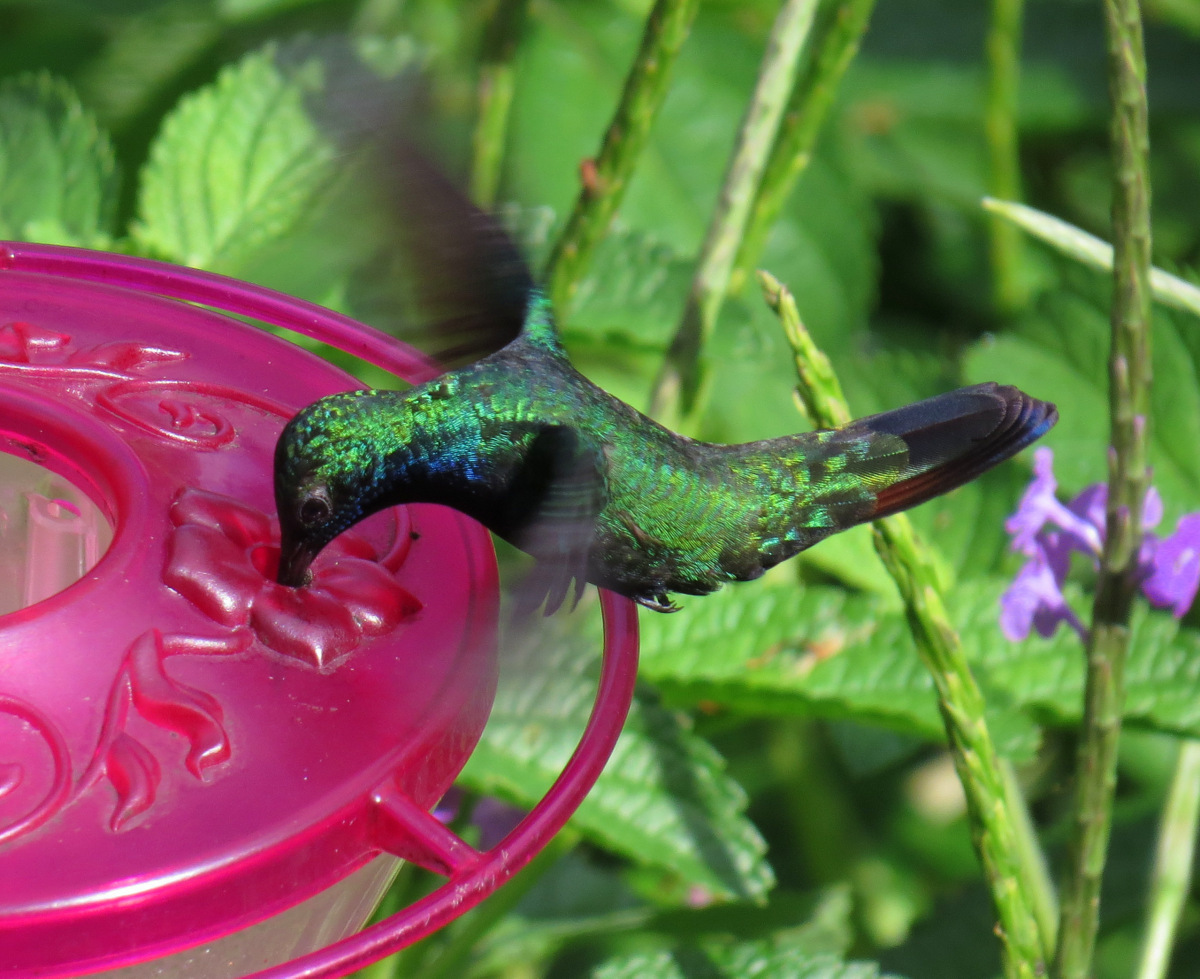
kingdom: Animalia
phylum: Chordata
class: Aves
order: Apodiformes
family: Trochilidae
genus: Anthracothorax
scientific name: Anthracothorax nigricollis
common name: Black-throated mango
